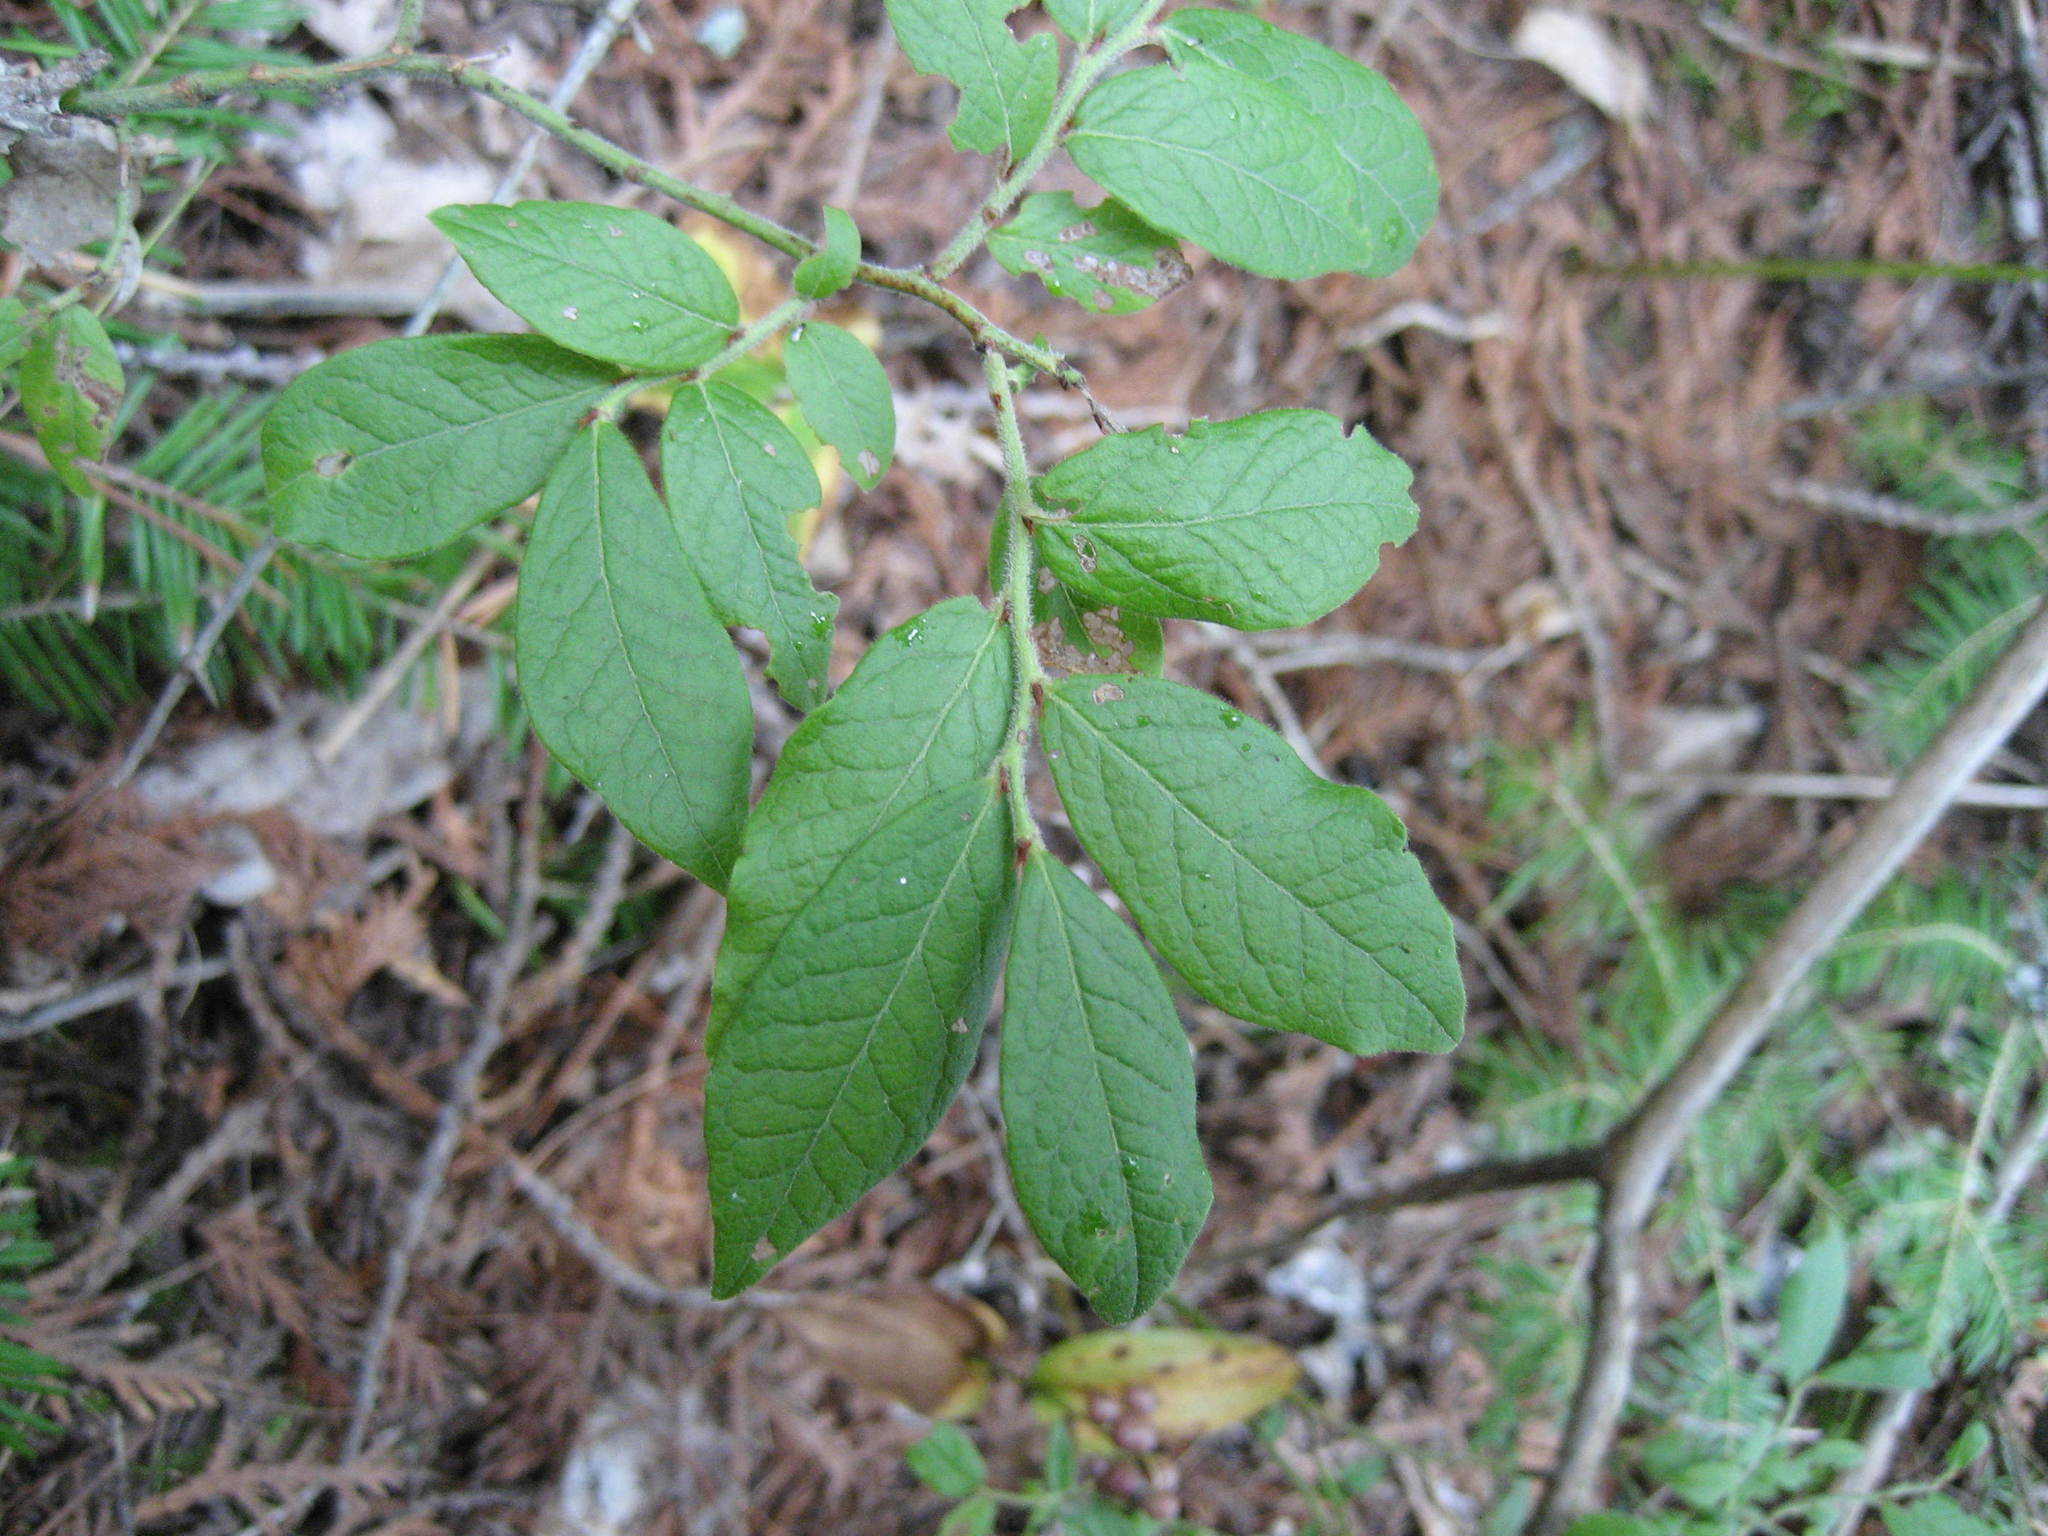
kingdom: Plantae
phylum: Tracheophyta
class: Magnoliopsida
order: Ericales
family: Ericaceae
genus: Vaccinium
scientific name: Vaccinium myrtilloides
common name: Canada blueberry
